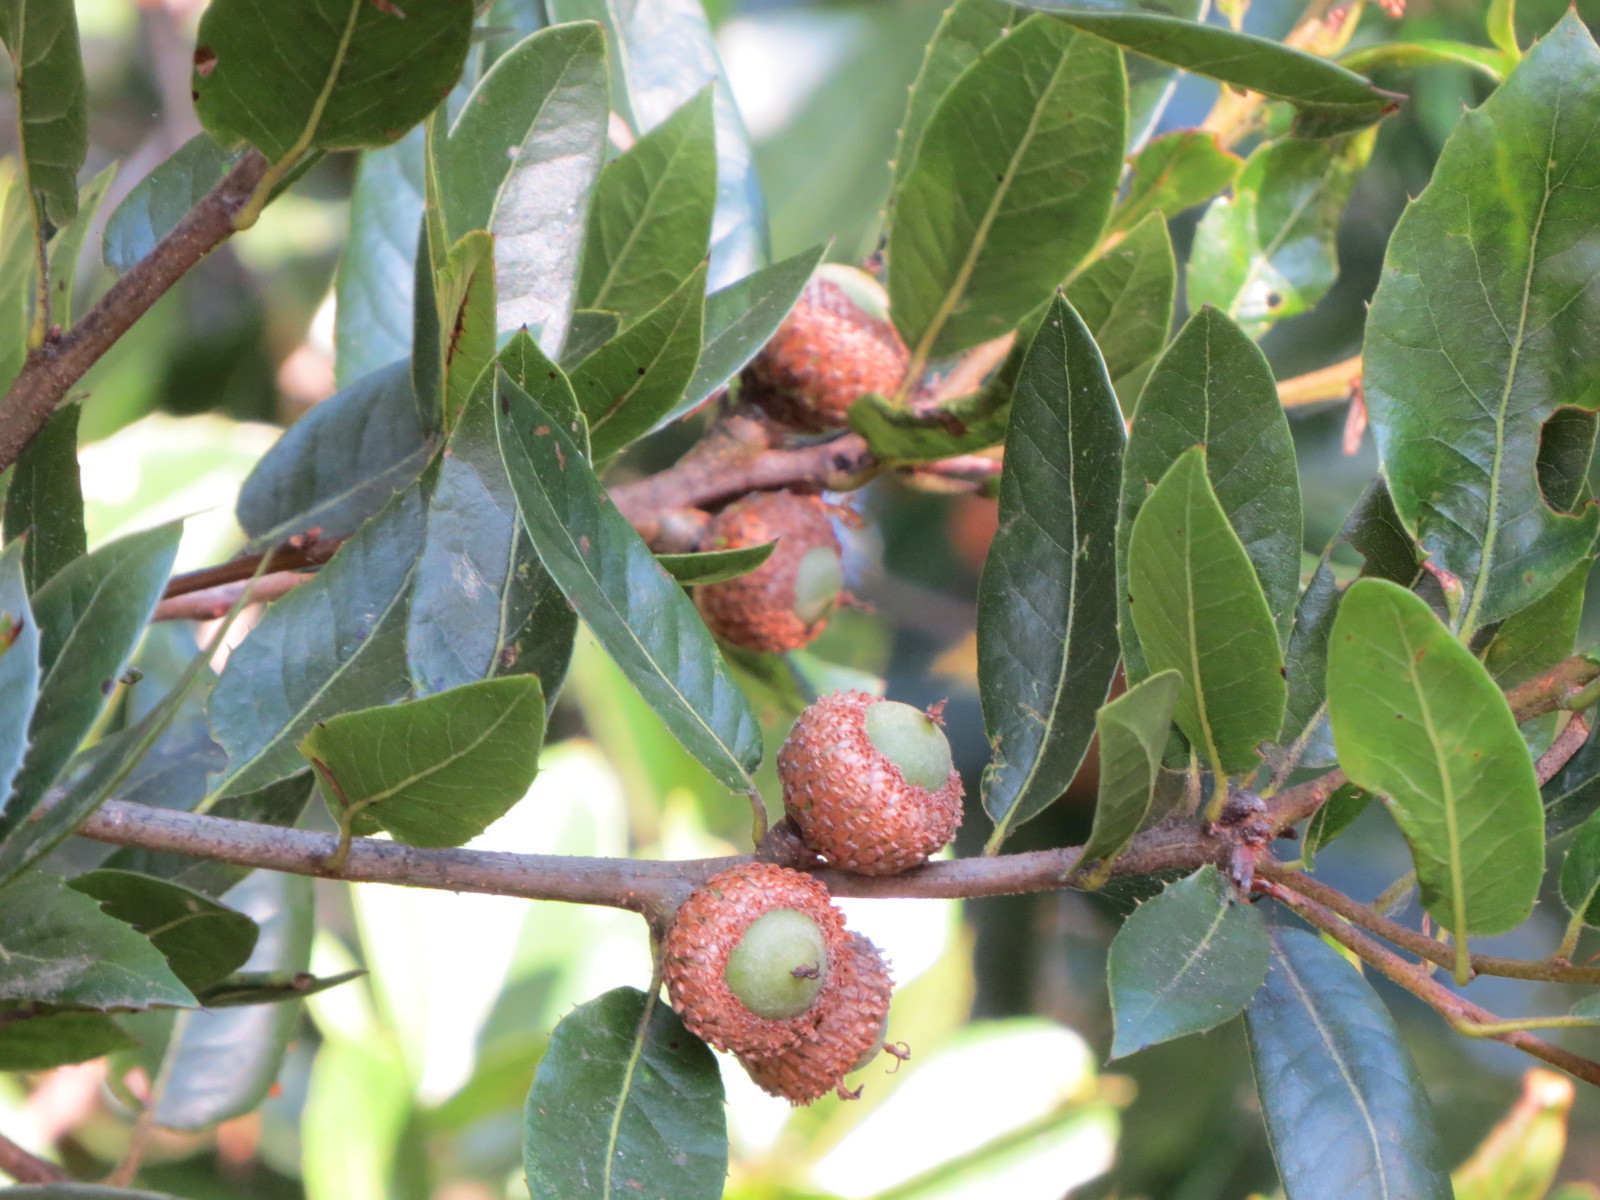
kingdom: Plantae
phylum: Tracheophyta
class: Magnoliopsida
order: Fagales
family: Fagaceae
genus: Quercus
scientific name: Quercus parvula
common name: Santa cruz island oak
